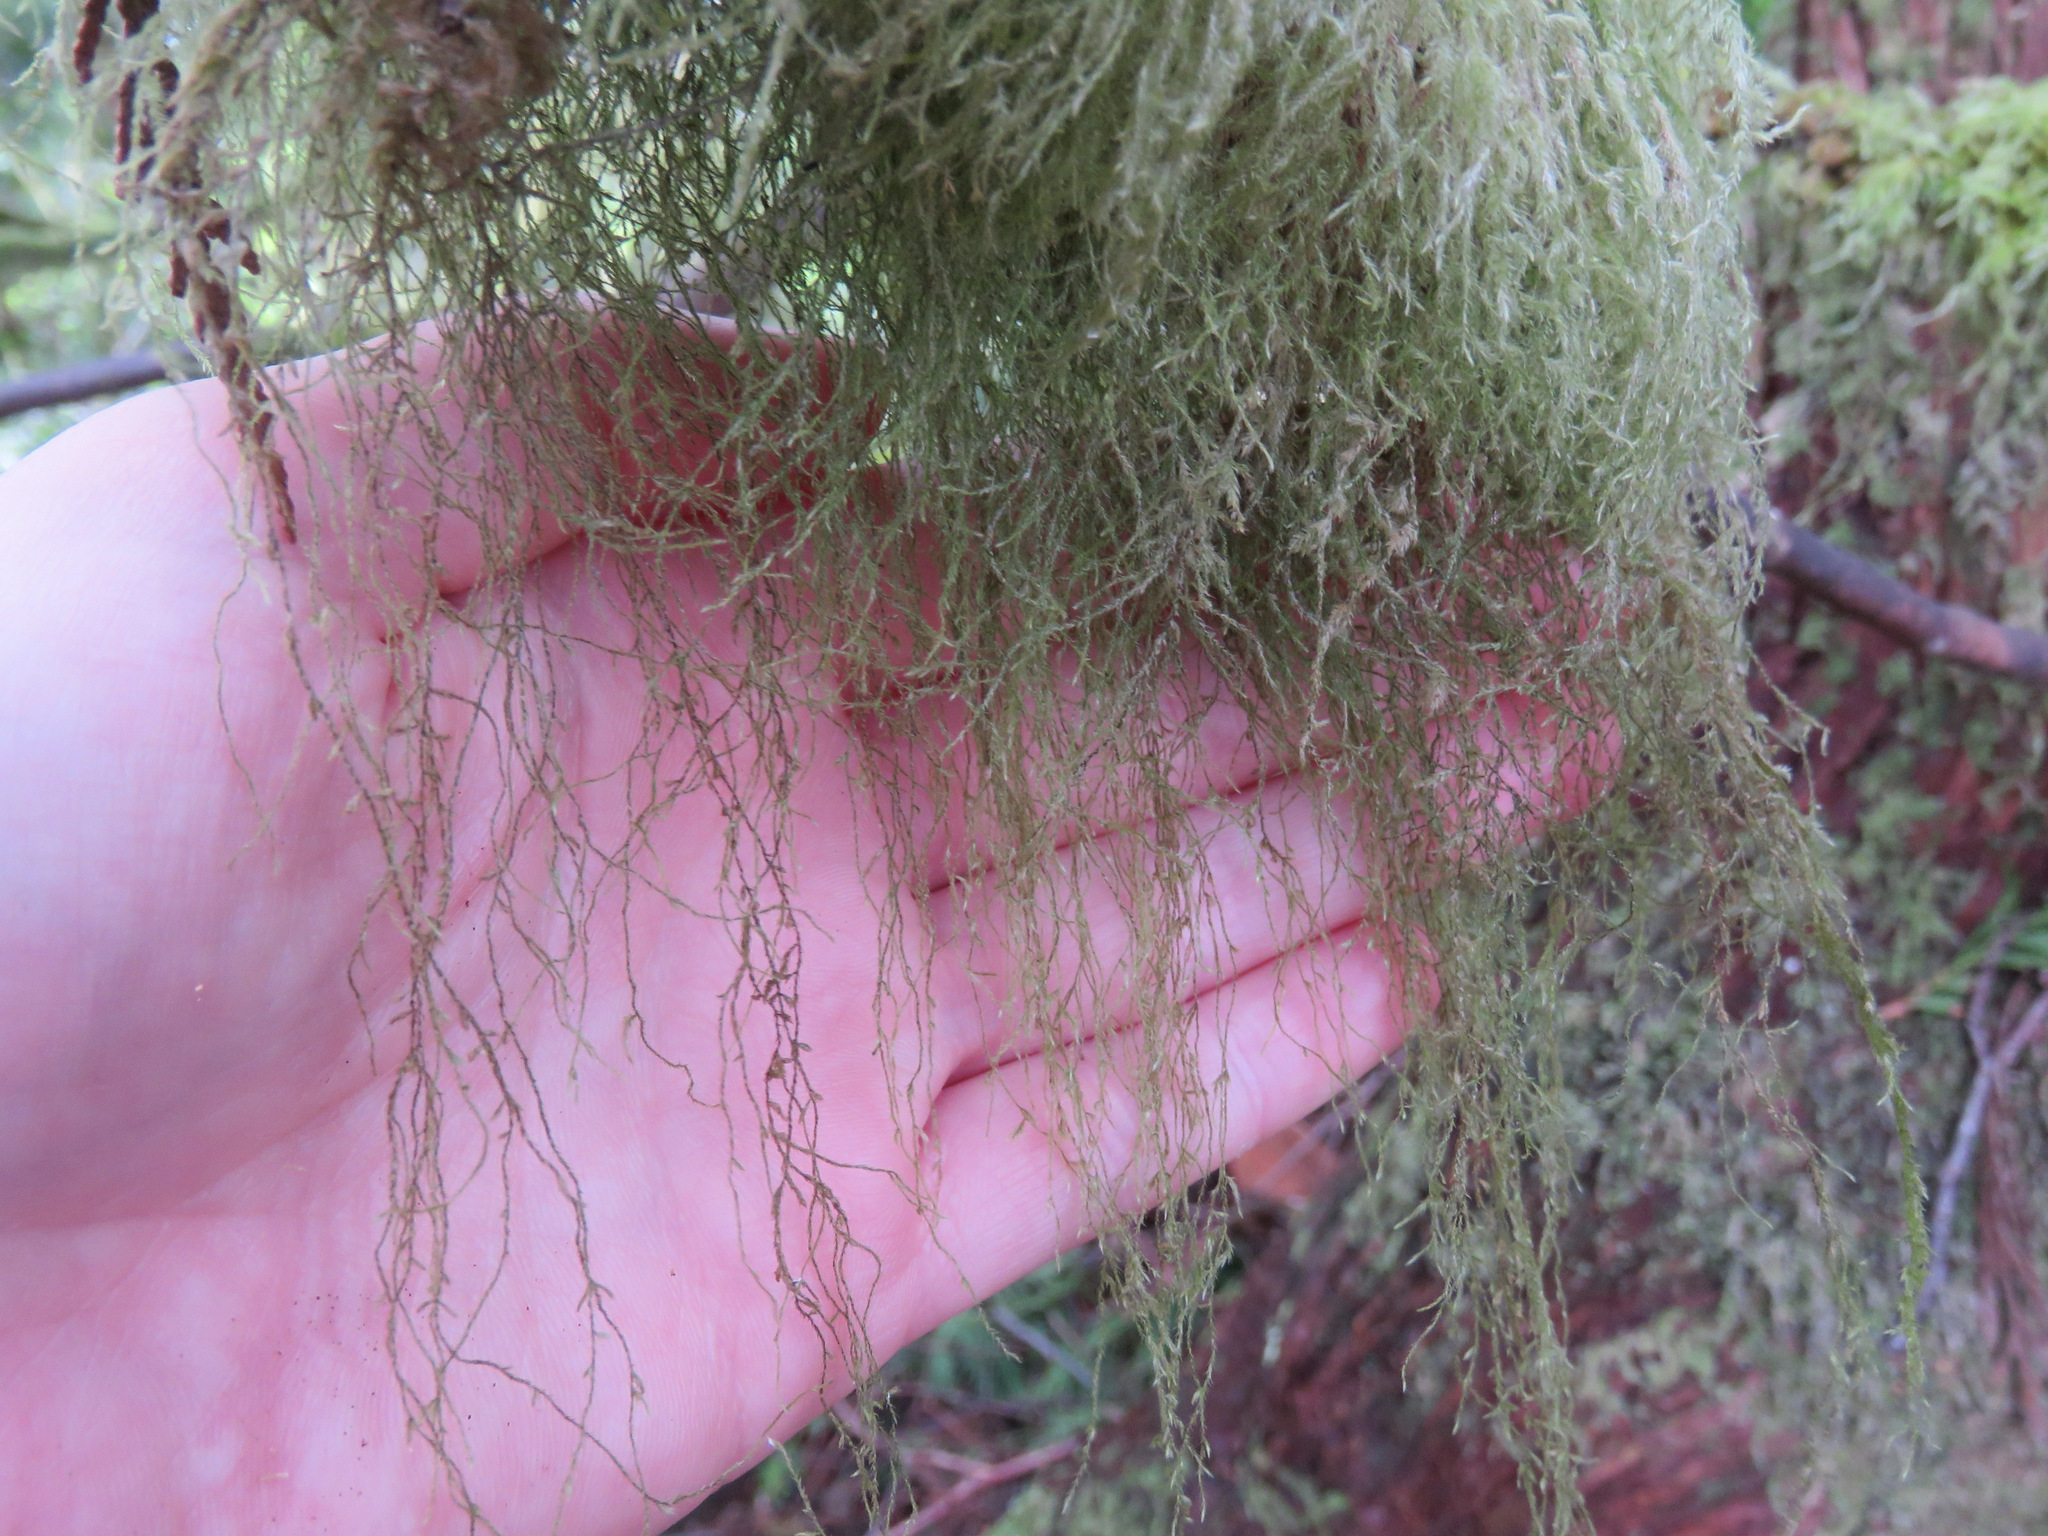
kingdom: Plantae
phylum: Bryophyta
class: Bryopsida
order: Hypnales
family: Lembophyllaceae
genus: Pseudisothecium
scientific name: Pseudisothecium stoloniferum
